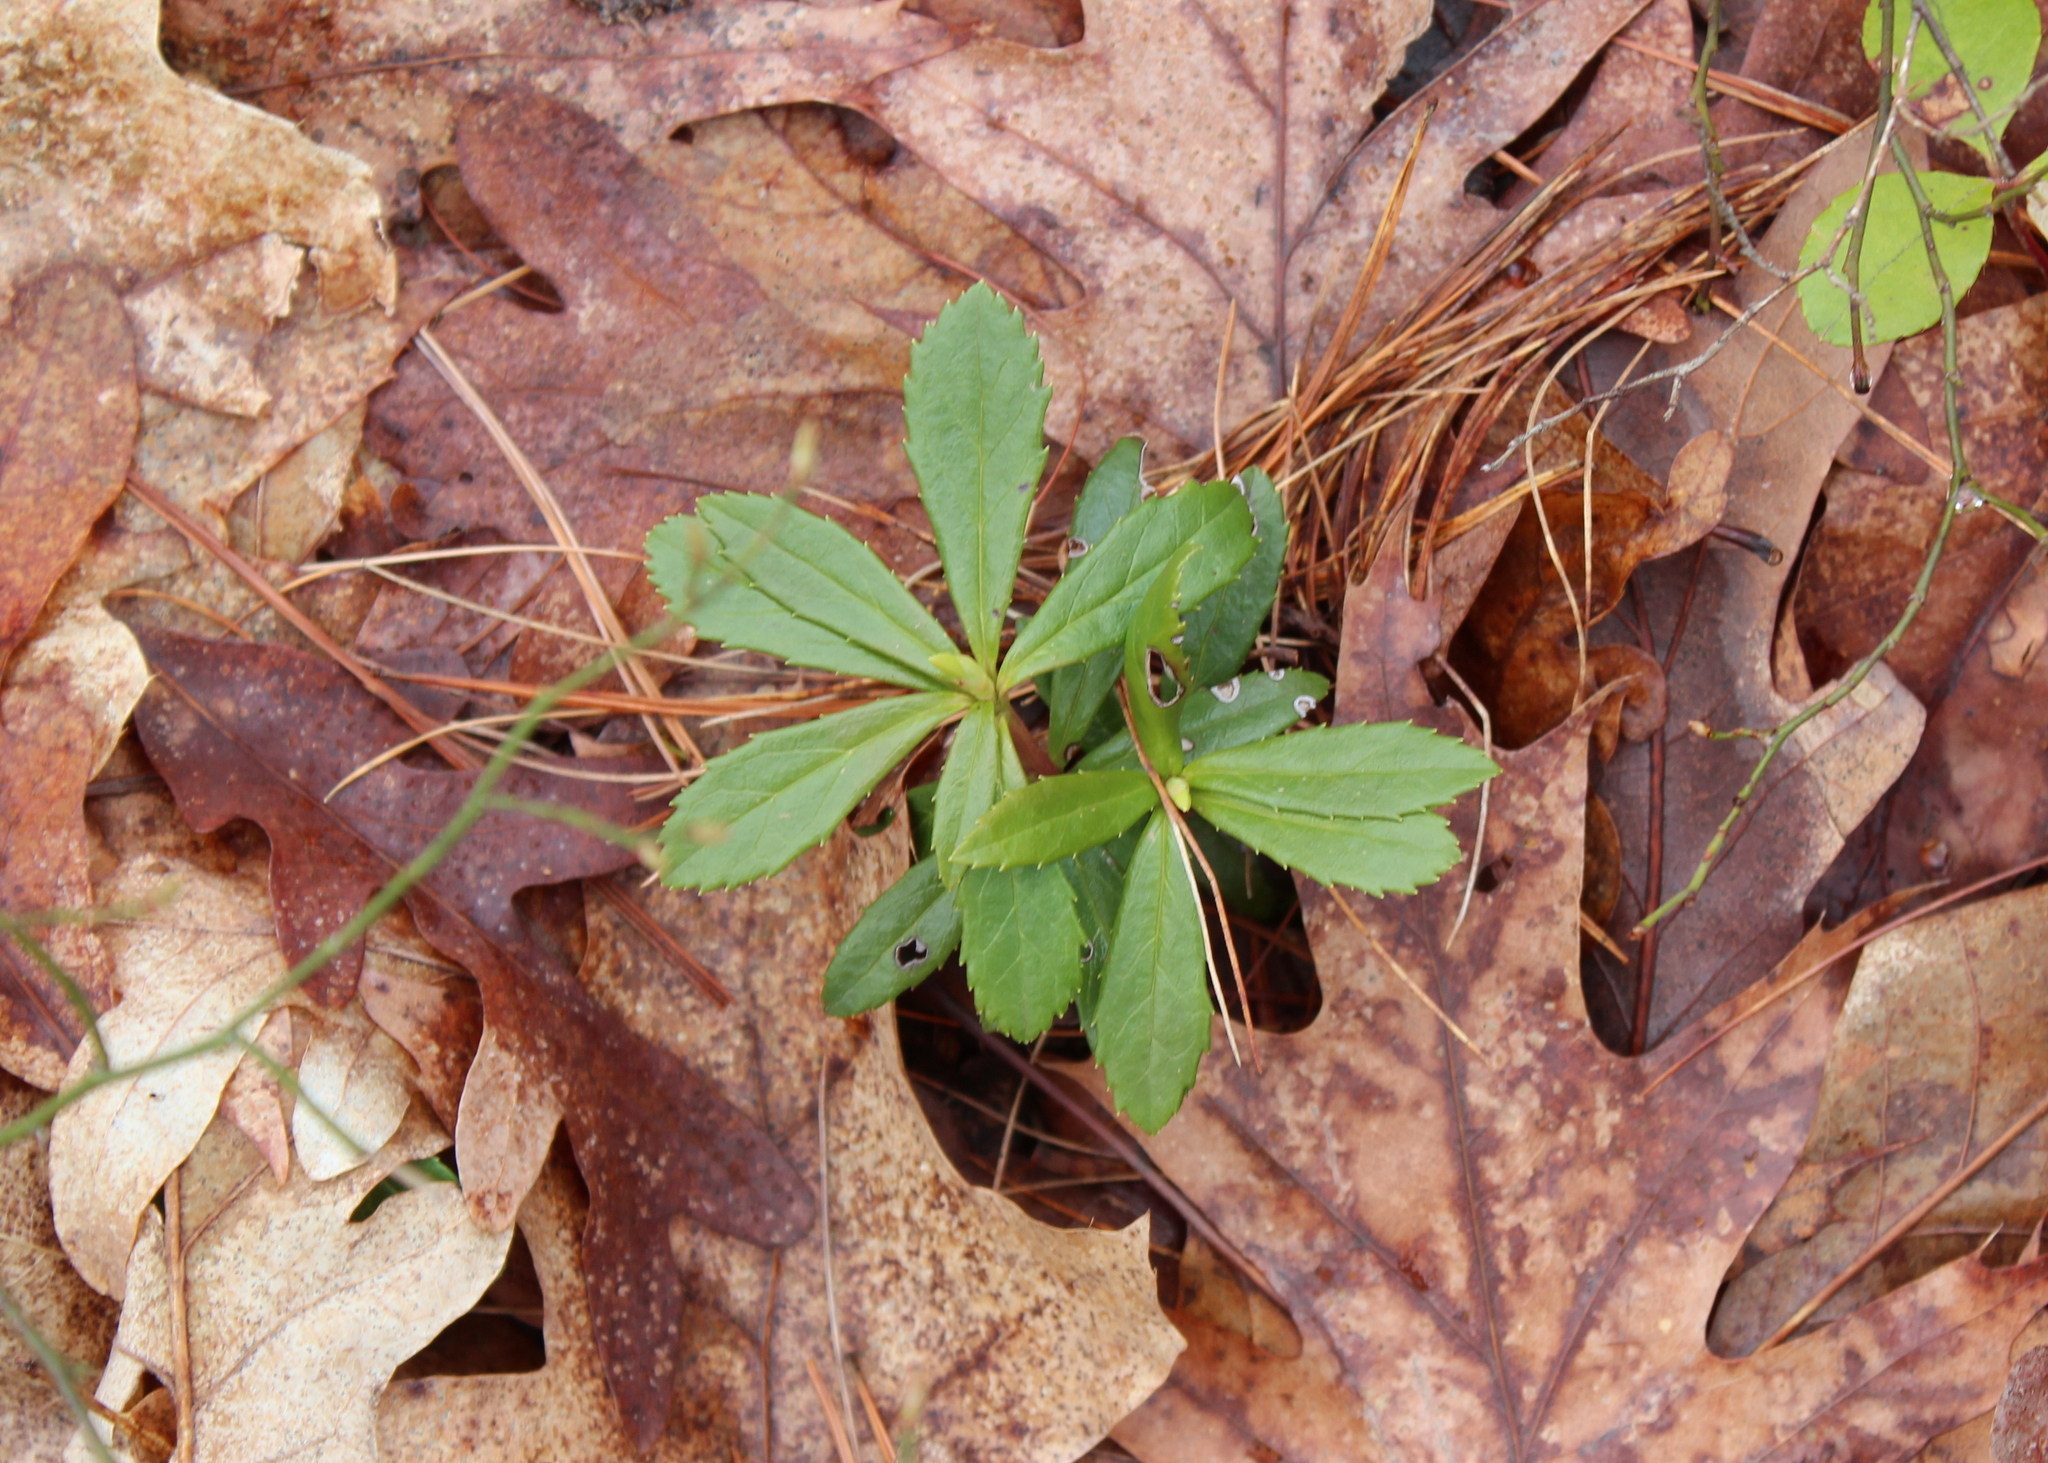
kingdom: Plantae
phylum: Tracheophyta
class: Magnoliopsida
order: Ericales
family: Ericaceae
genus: Chimaphila
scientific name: Chimaphila umbellata
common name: Pipsissewa
